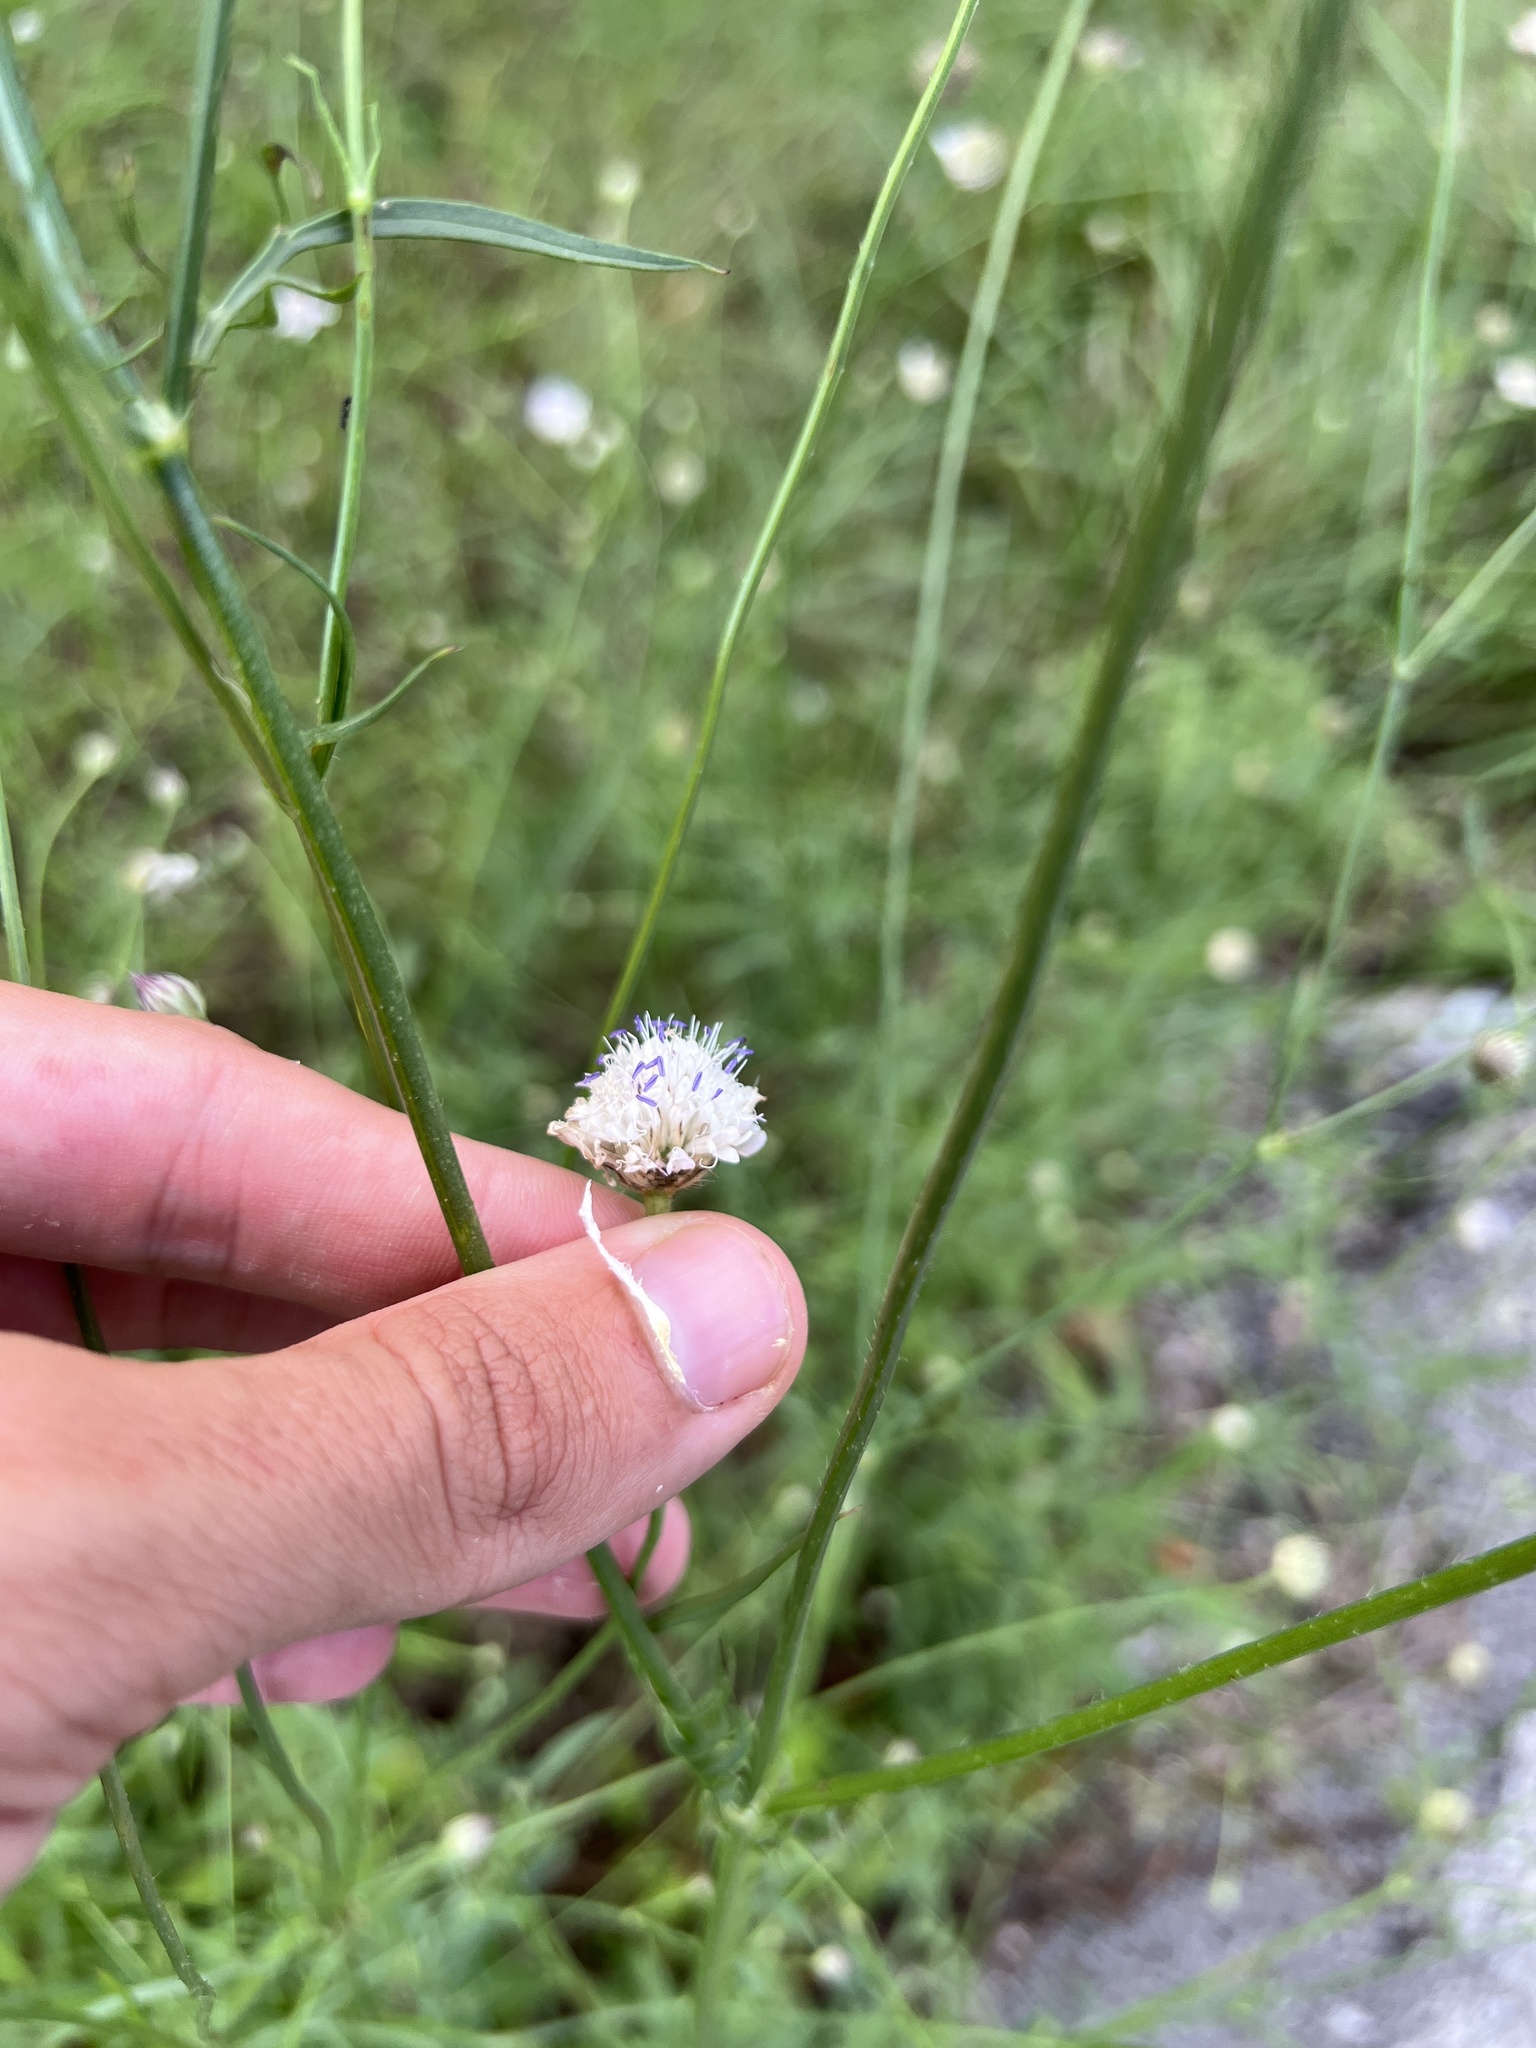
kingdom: Plantae
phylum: Tracheophyta
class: Magnoliopsida
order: Dipsacales
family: Caprifoliaceae
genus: Cephalaria
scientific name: Cephalaria transsylvanica
